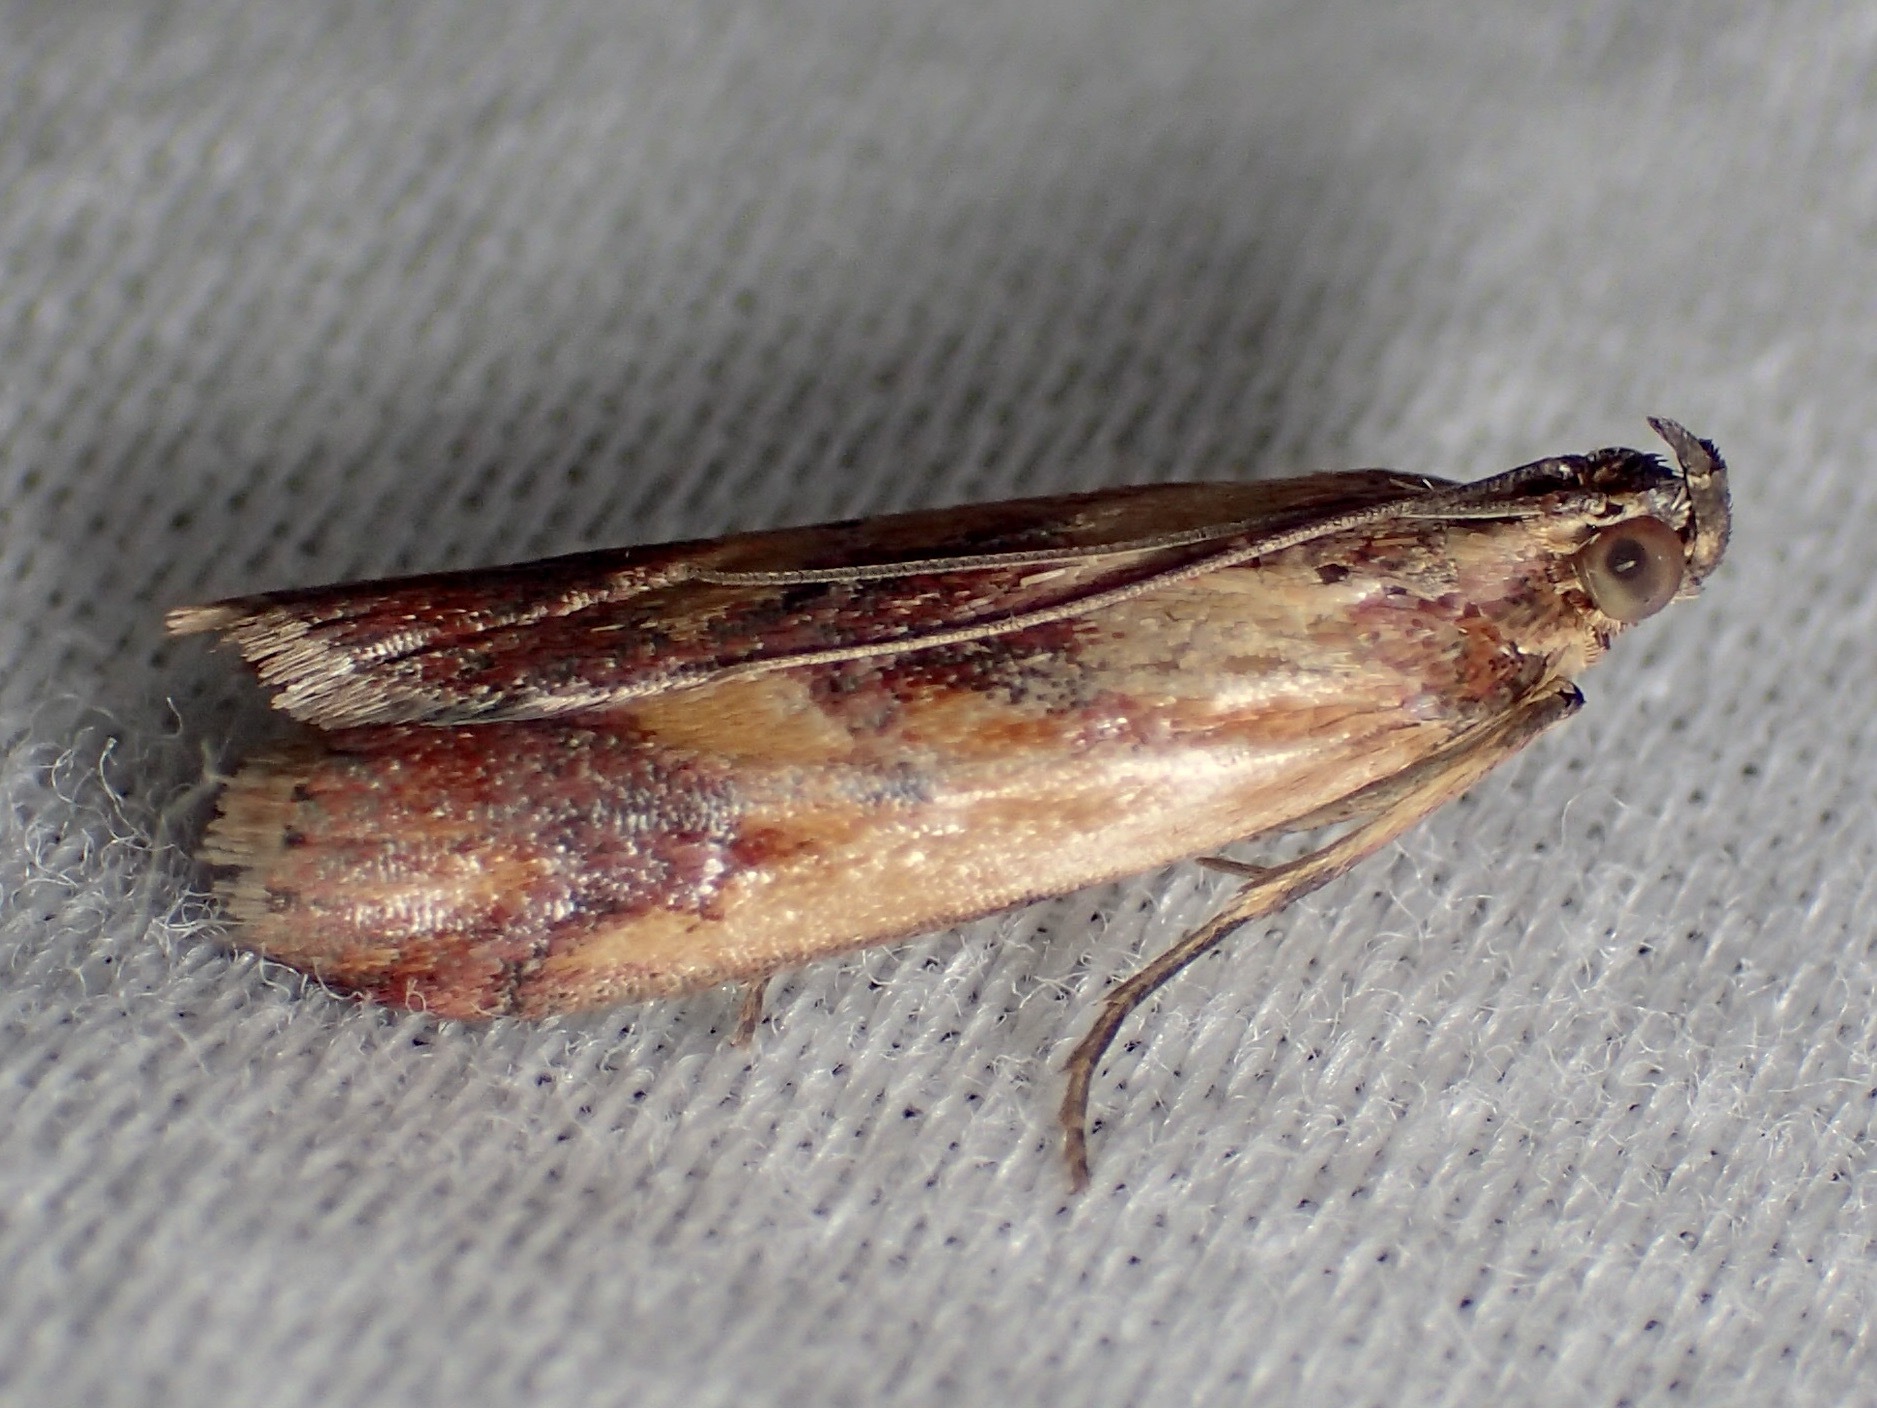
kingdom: Animalia
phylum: Arthropoda
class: Insecta
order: Lepidoptera
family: Pyralidae
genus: Epicrocis
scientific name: Epicrocis metallopa
